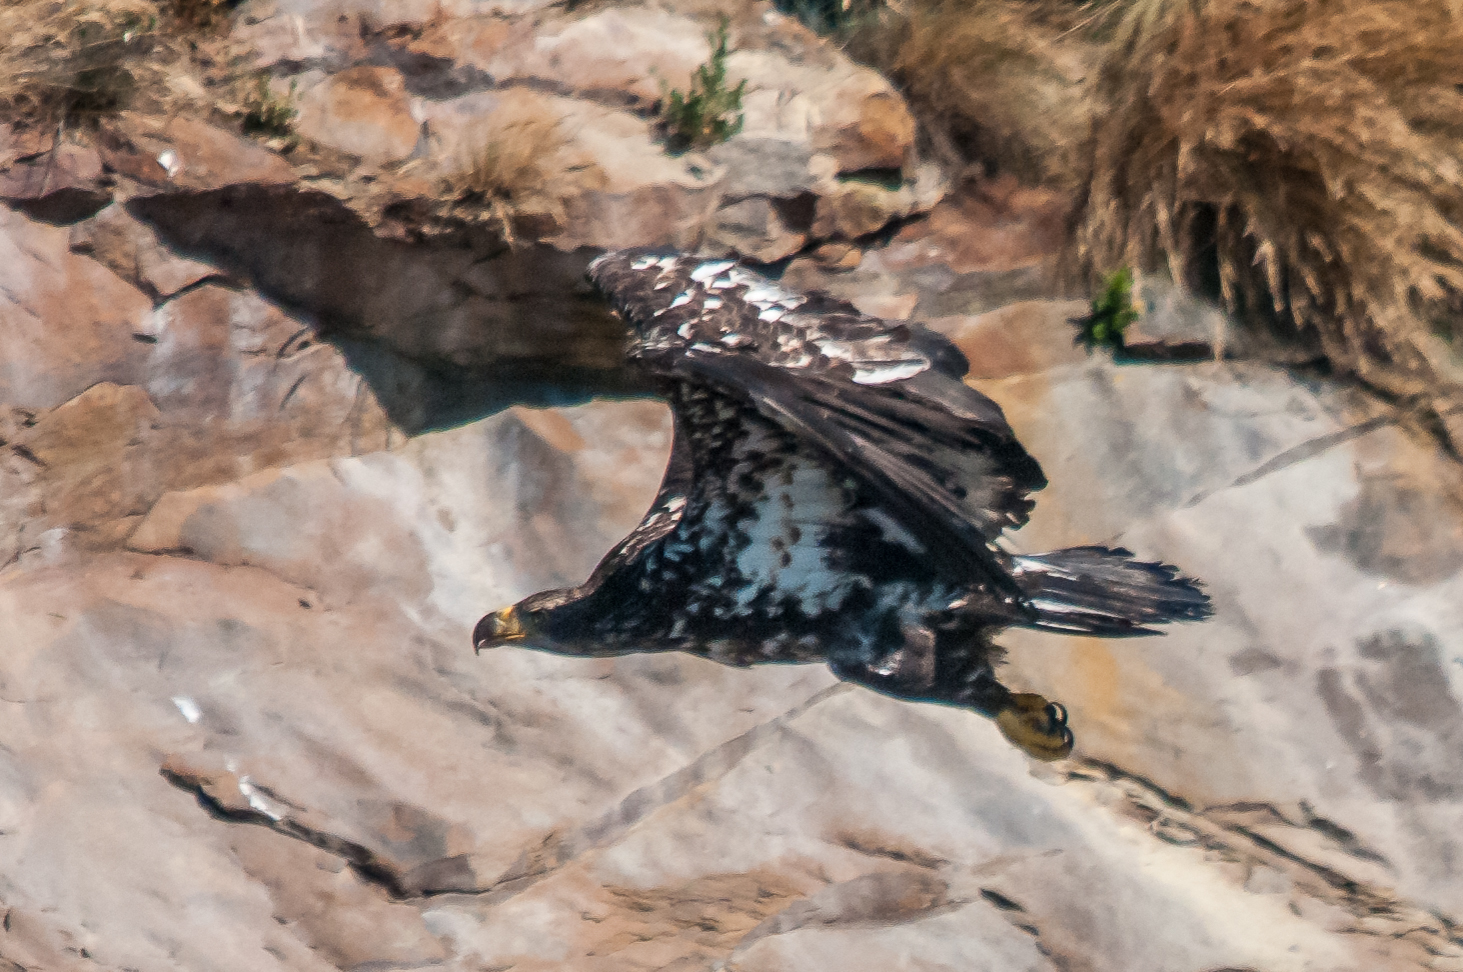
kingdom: Animalia
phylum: Chordata
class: Aves
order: Accipitriformes
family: Accipitridae
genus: Haliaeetus
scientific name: Haliaeetus leucocephalus
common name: Bald eagle
